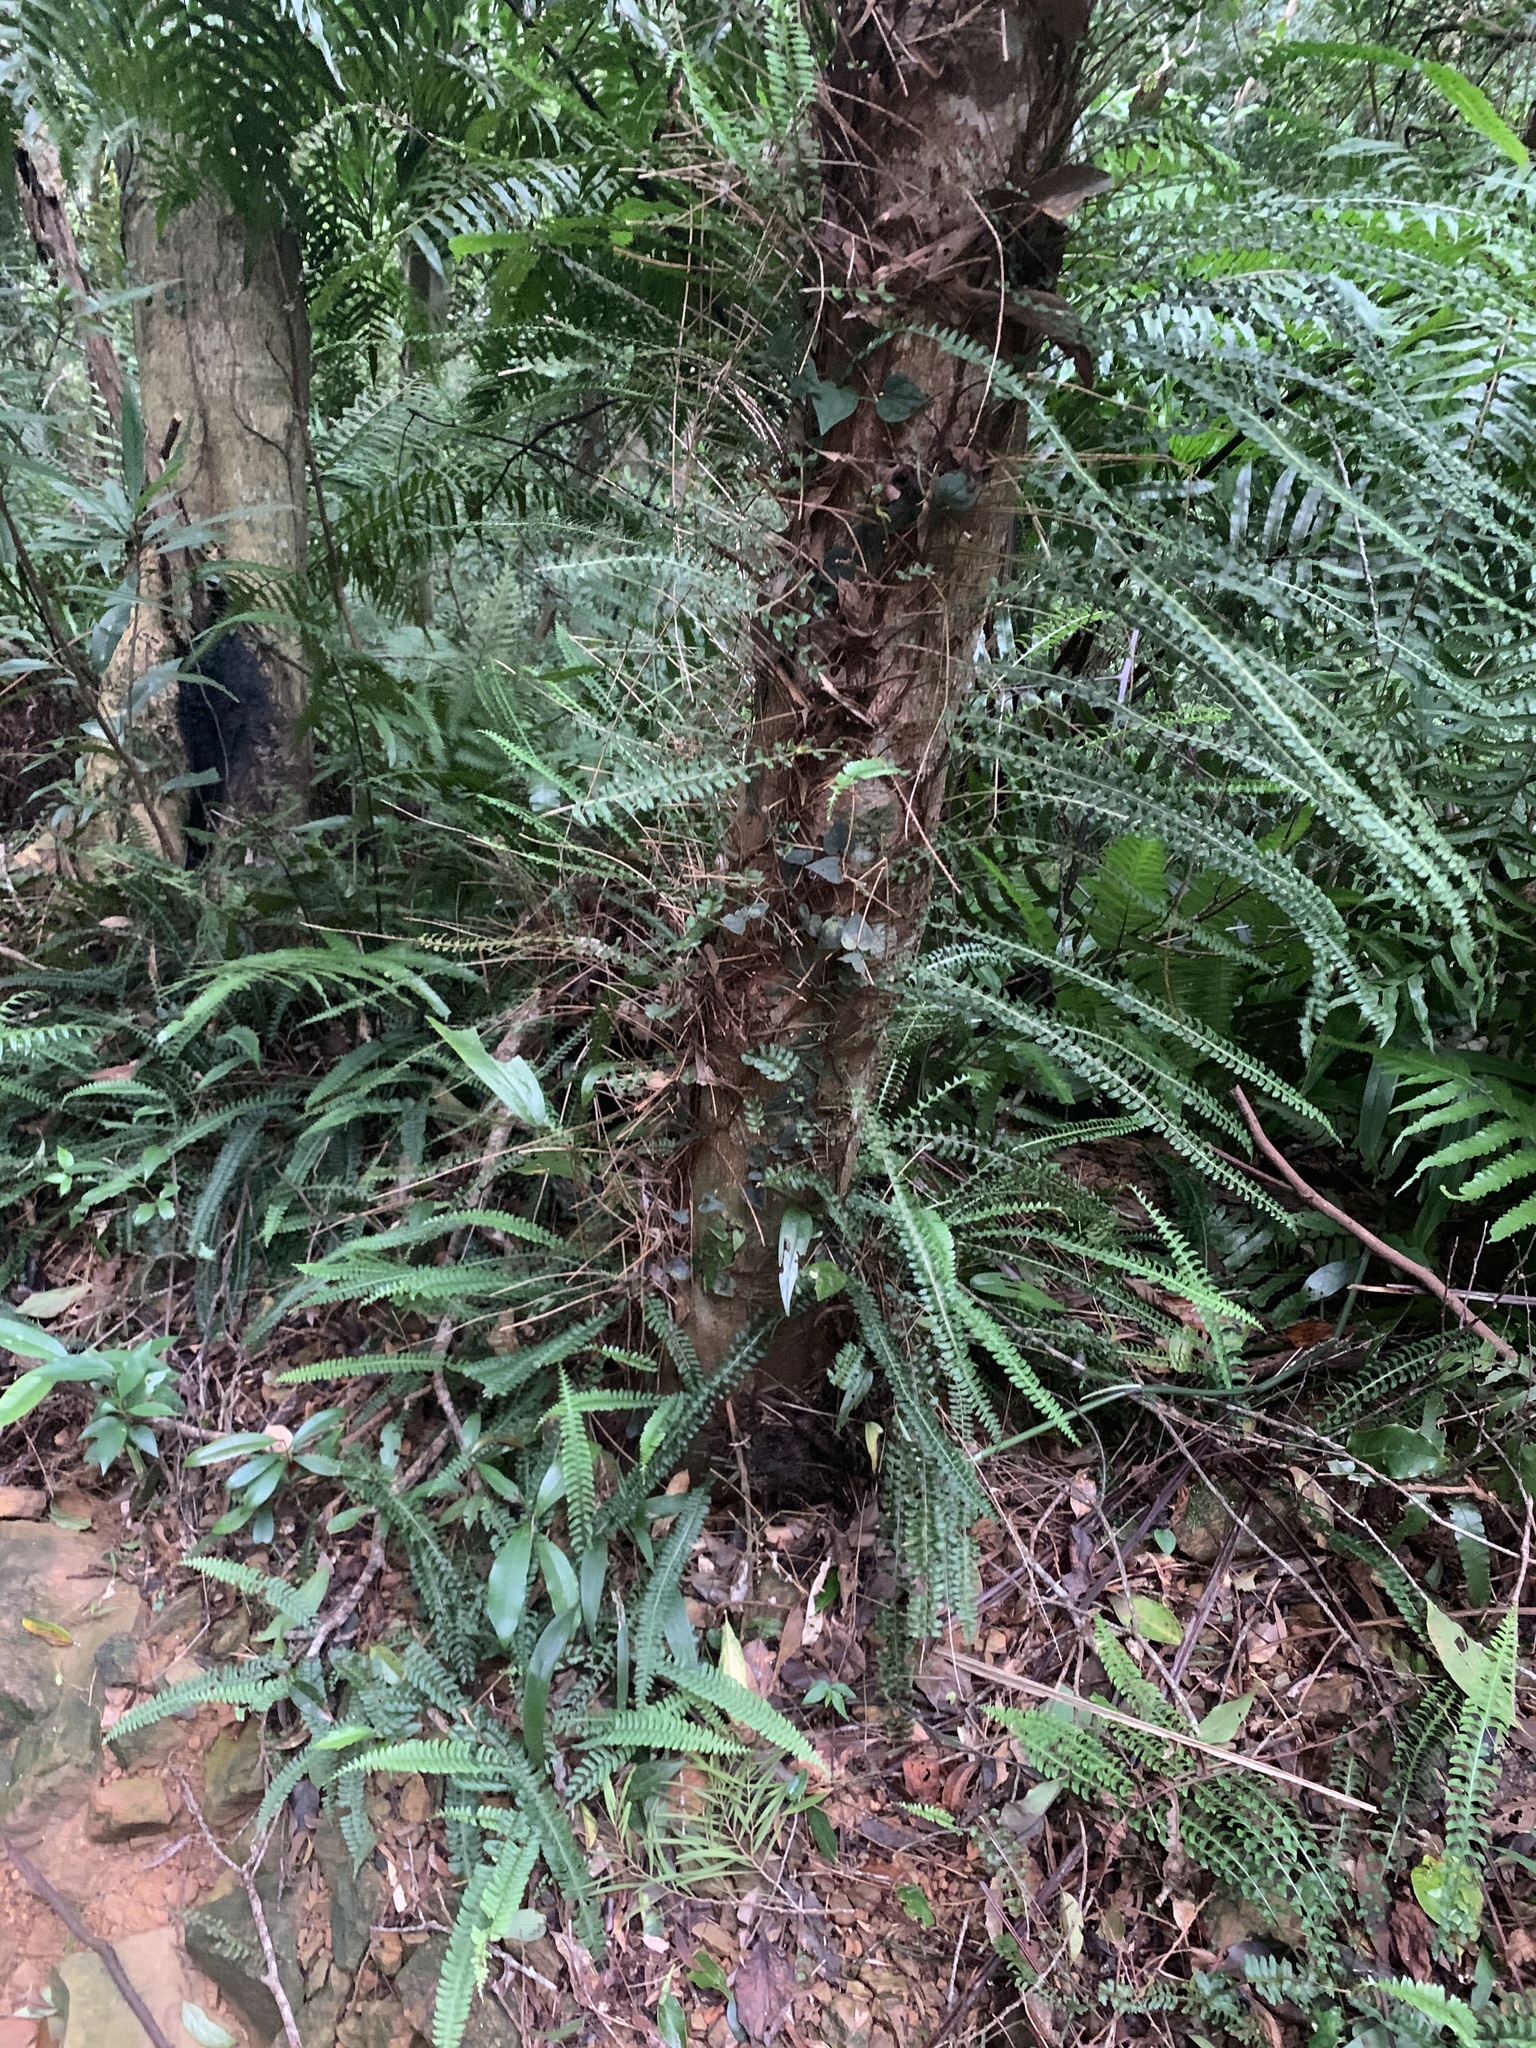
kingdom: Plantae
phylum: Tracheophyta
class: Polypodiopsida
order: Polypodiales
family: Lindsaeaceae
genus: Lindsaea
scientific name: Lindsaea yaeyamensis
